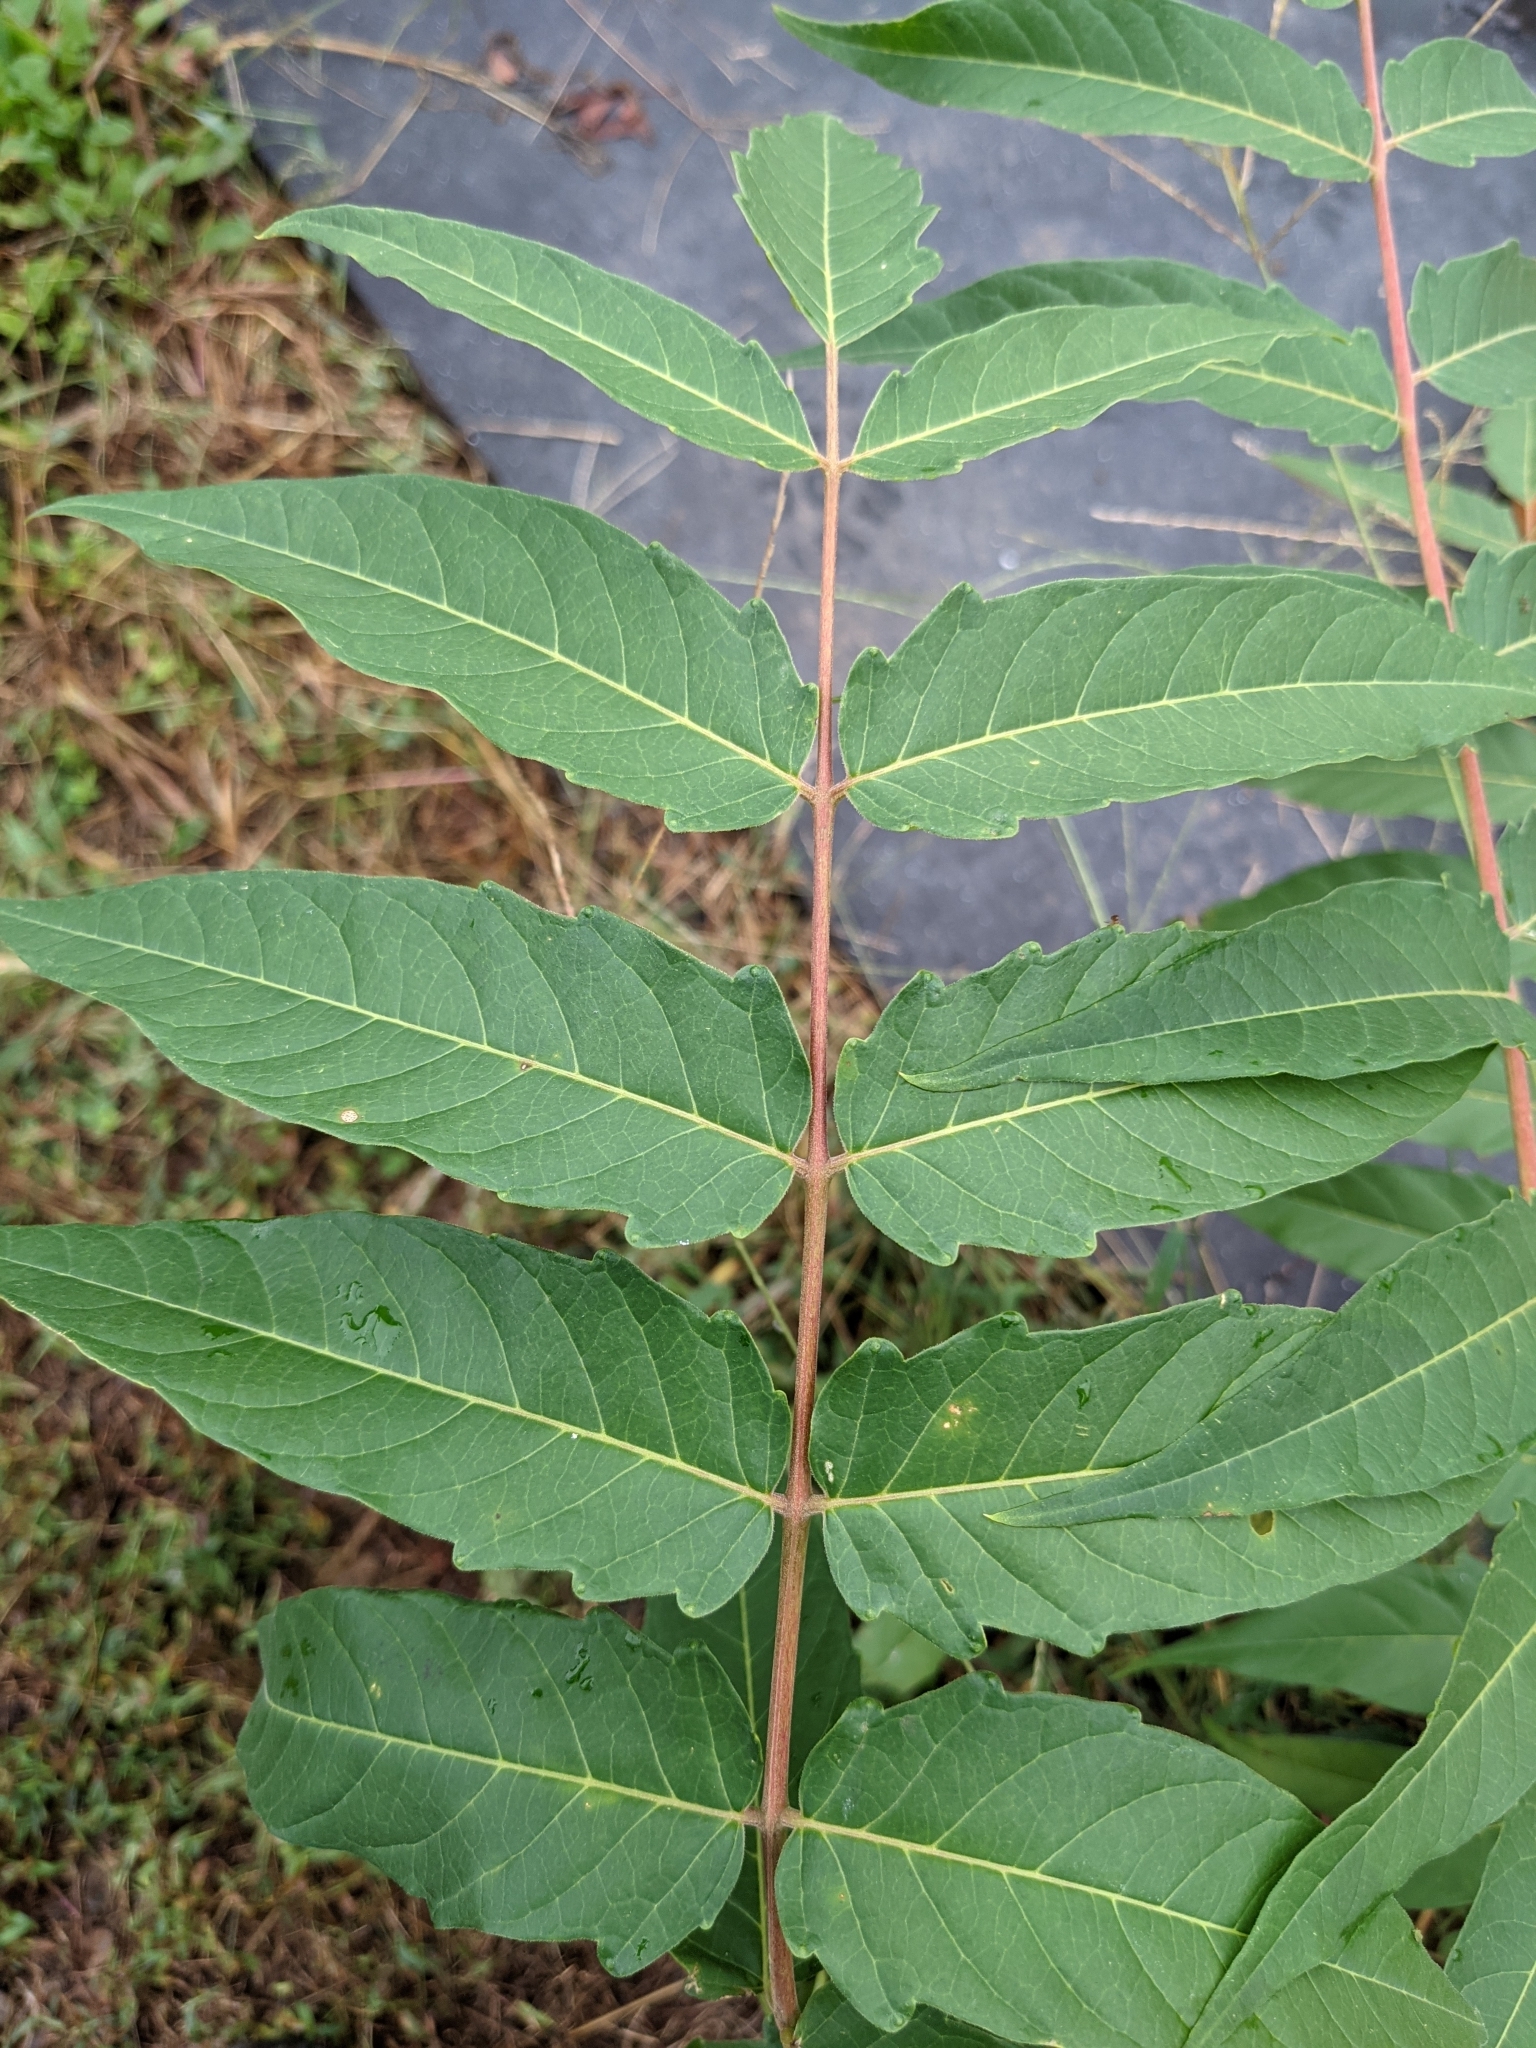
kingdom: Plantae
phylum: Tracheophyta
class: Magnoliopsida
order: Sapindales
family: Simaroubaceae
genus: Ailanthus
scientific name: Ailanthus altissima
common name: Tree-of-heaven
